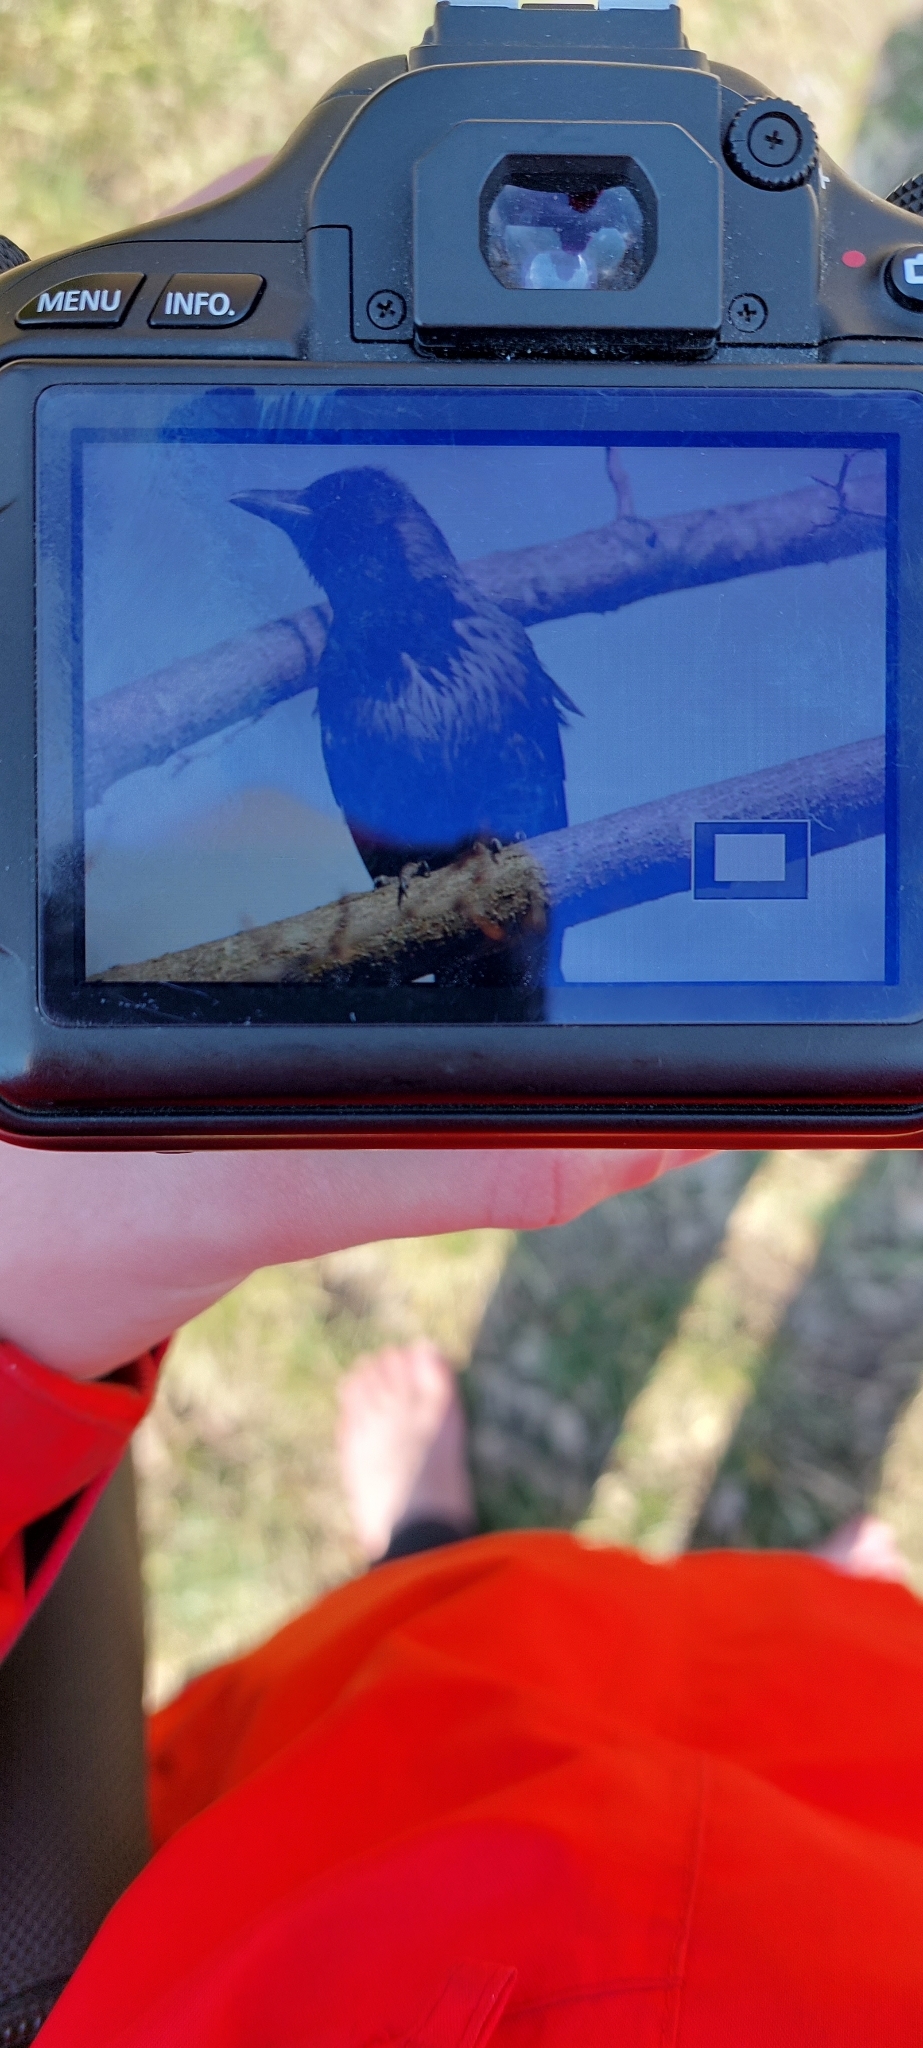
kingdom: Animalia
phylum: Chordata
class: Aves
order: Passeriformes
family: Corvidae
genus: Corvus
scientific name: Corvus
